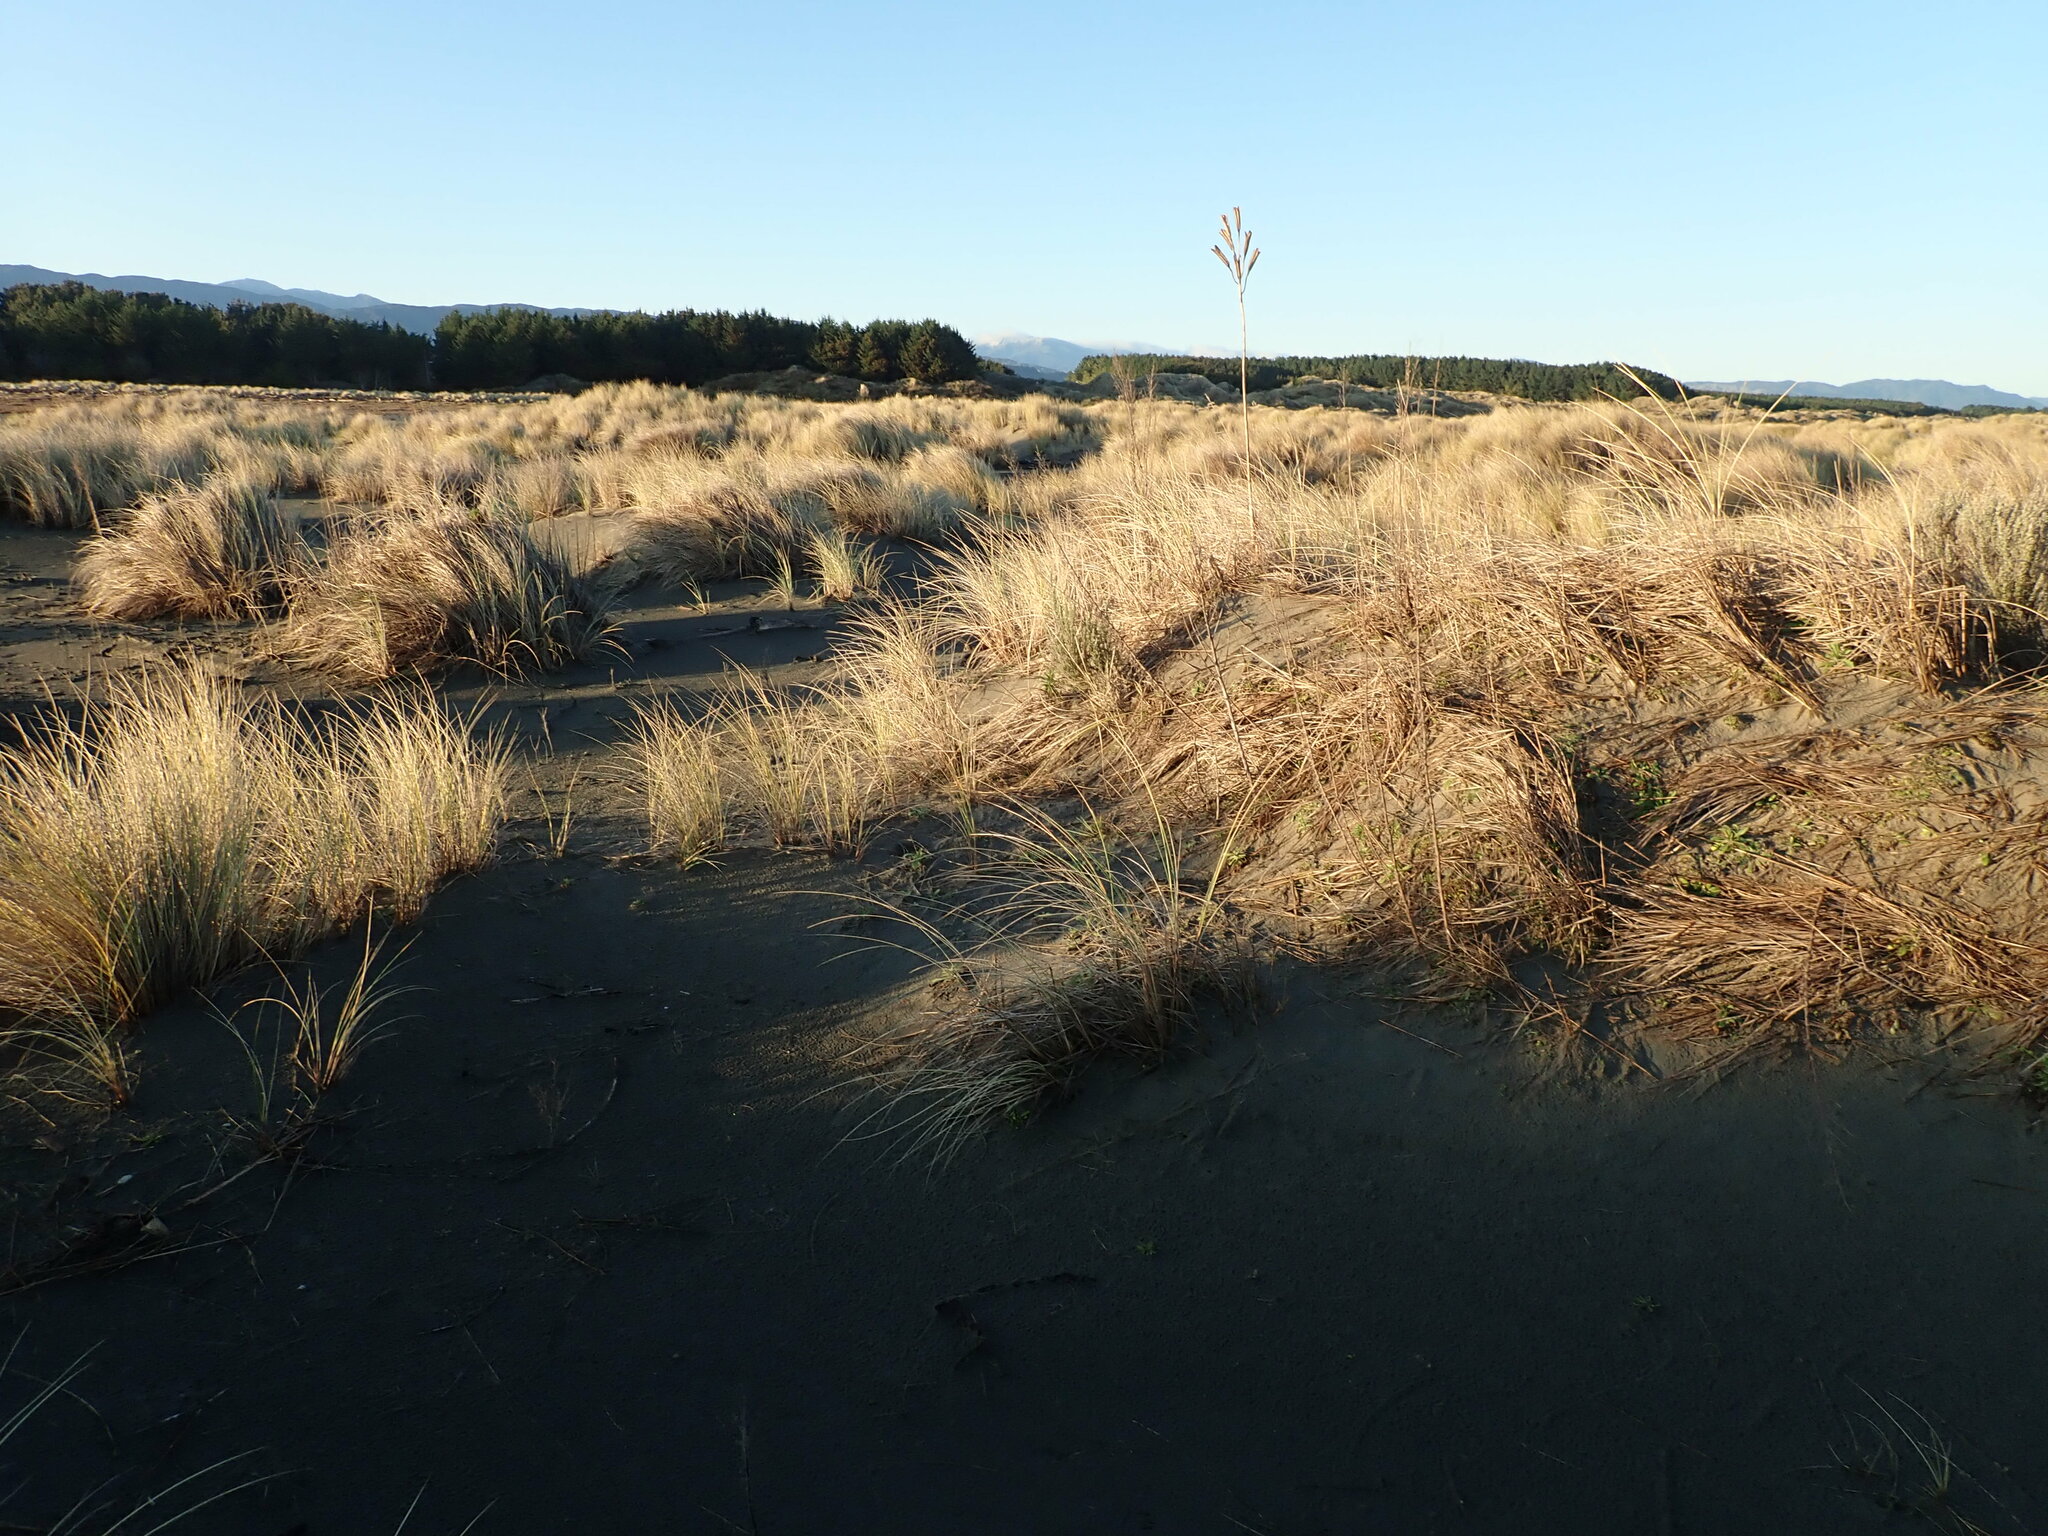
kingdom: Plantae
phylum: Tracheophyta
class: Liliopsida
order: Liliales
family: Liliaceae
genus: Lilium
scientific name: Lilium formosanum
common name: Formosa lily
